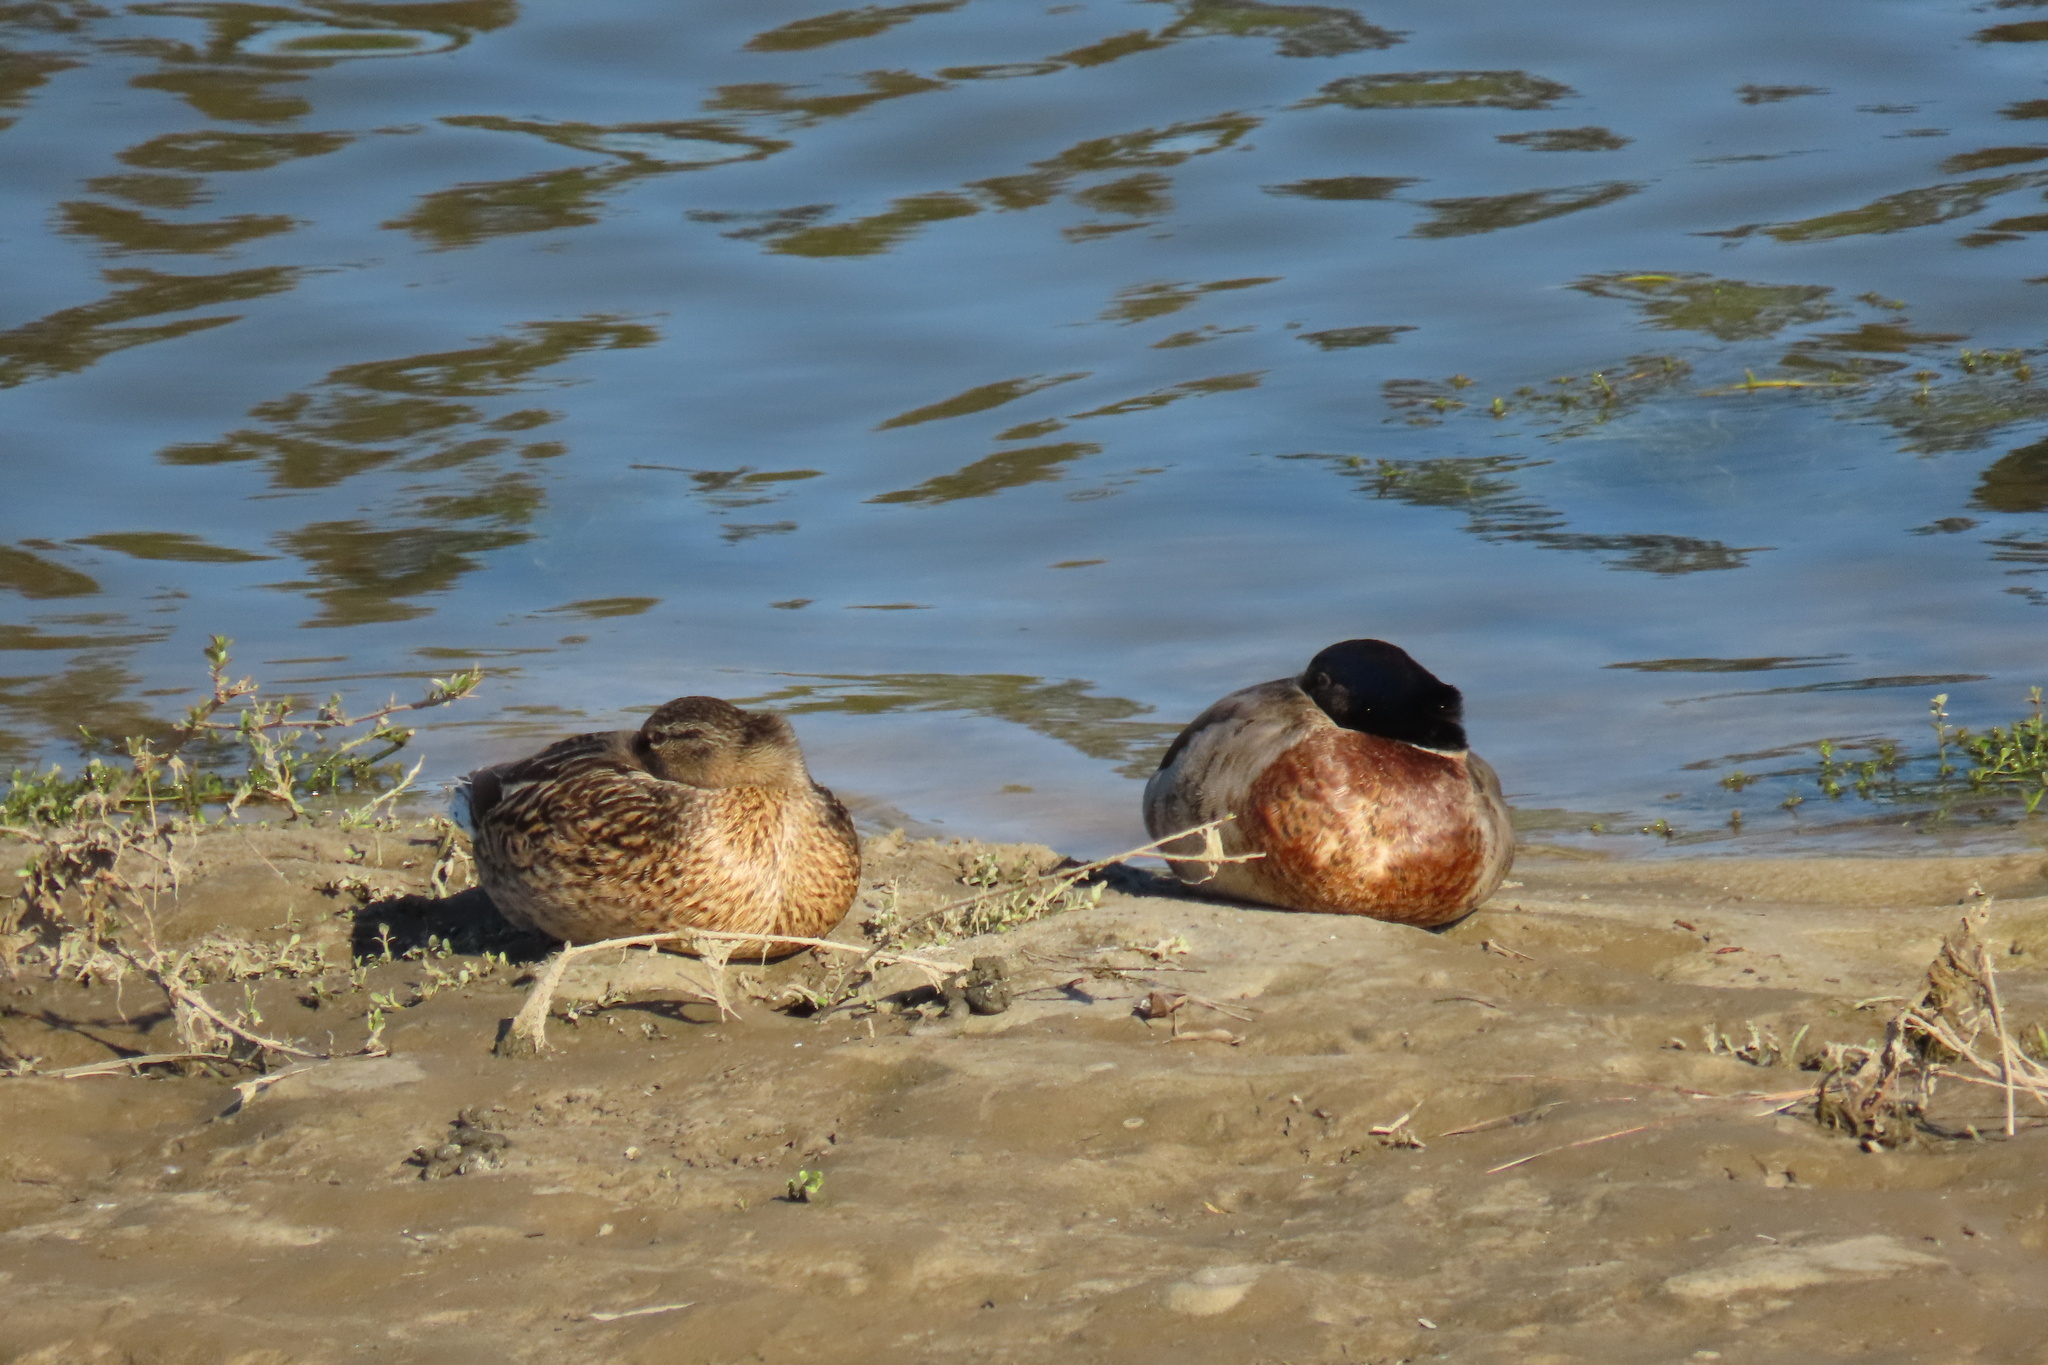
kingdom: Animalia
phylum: Chordata
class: Aves
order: Anseriformes
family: Anatidae
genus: Anas
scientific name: Anas platyrhynchos
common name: Mallard
